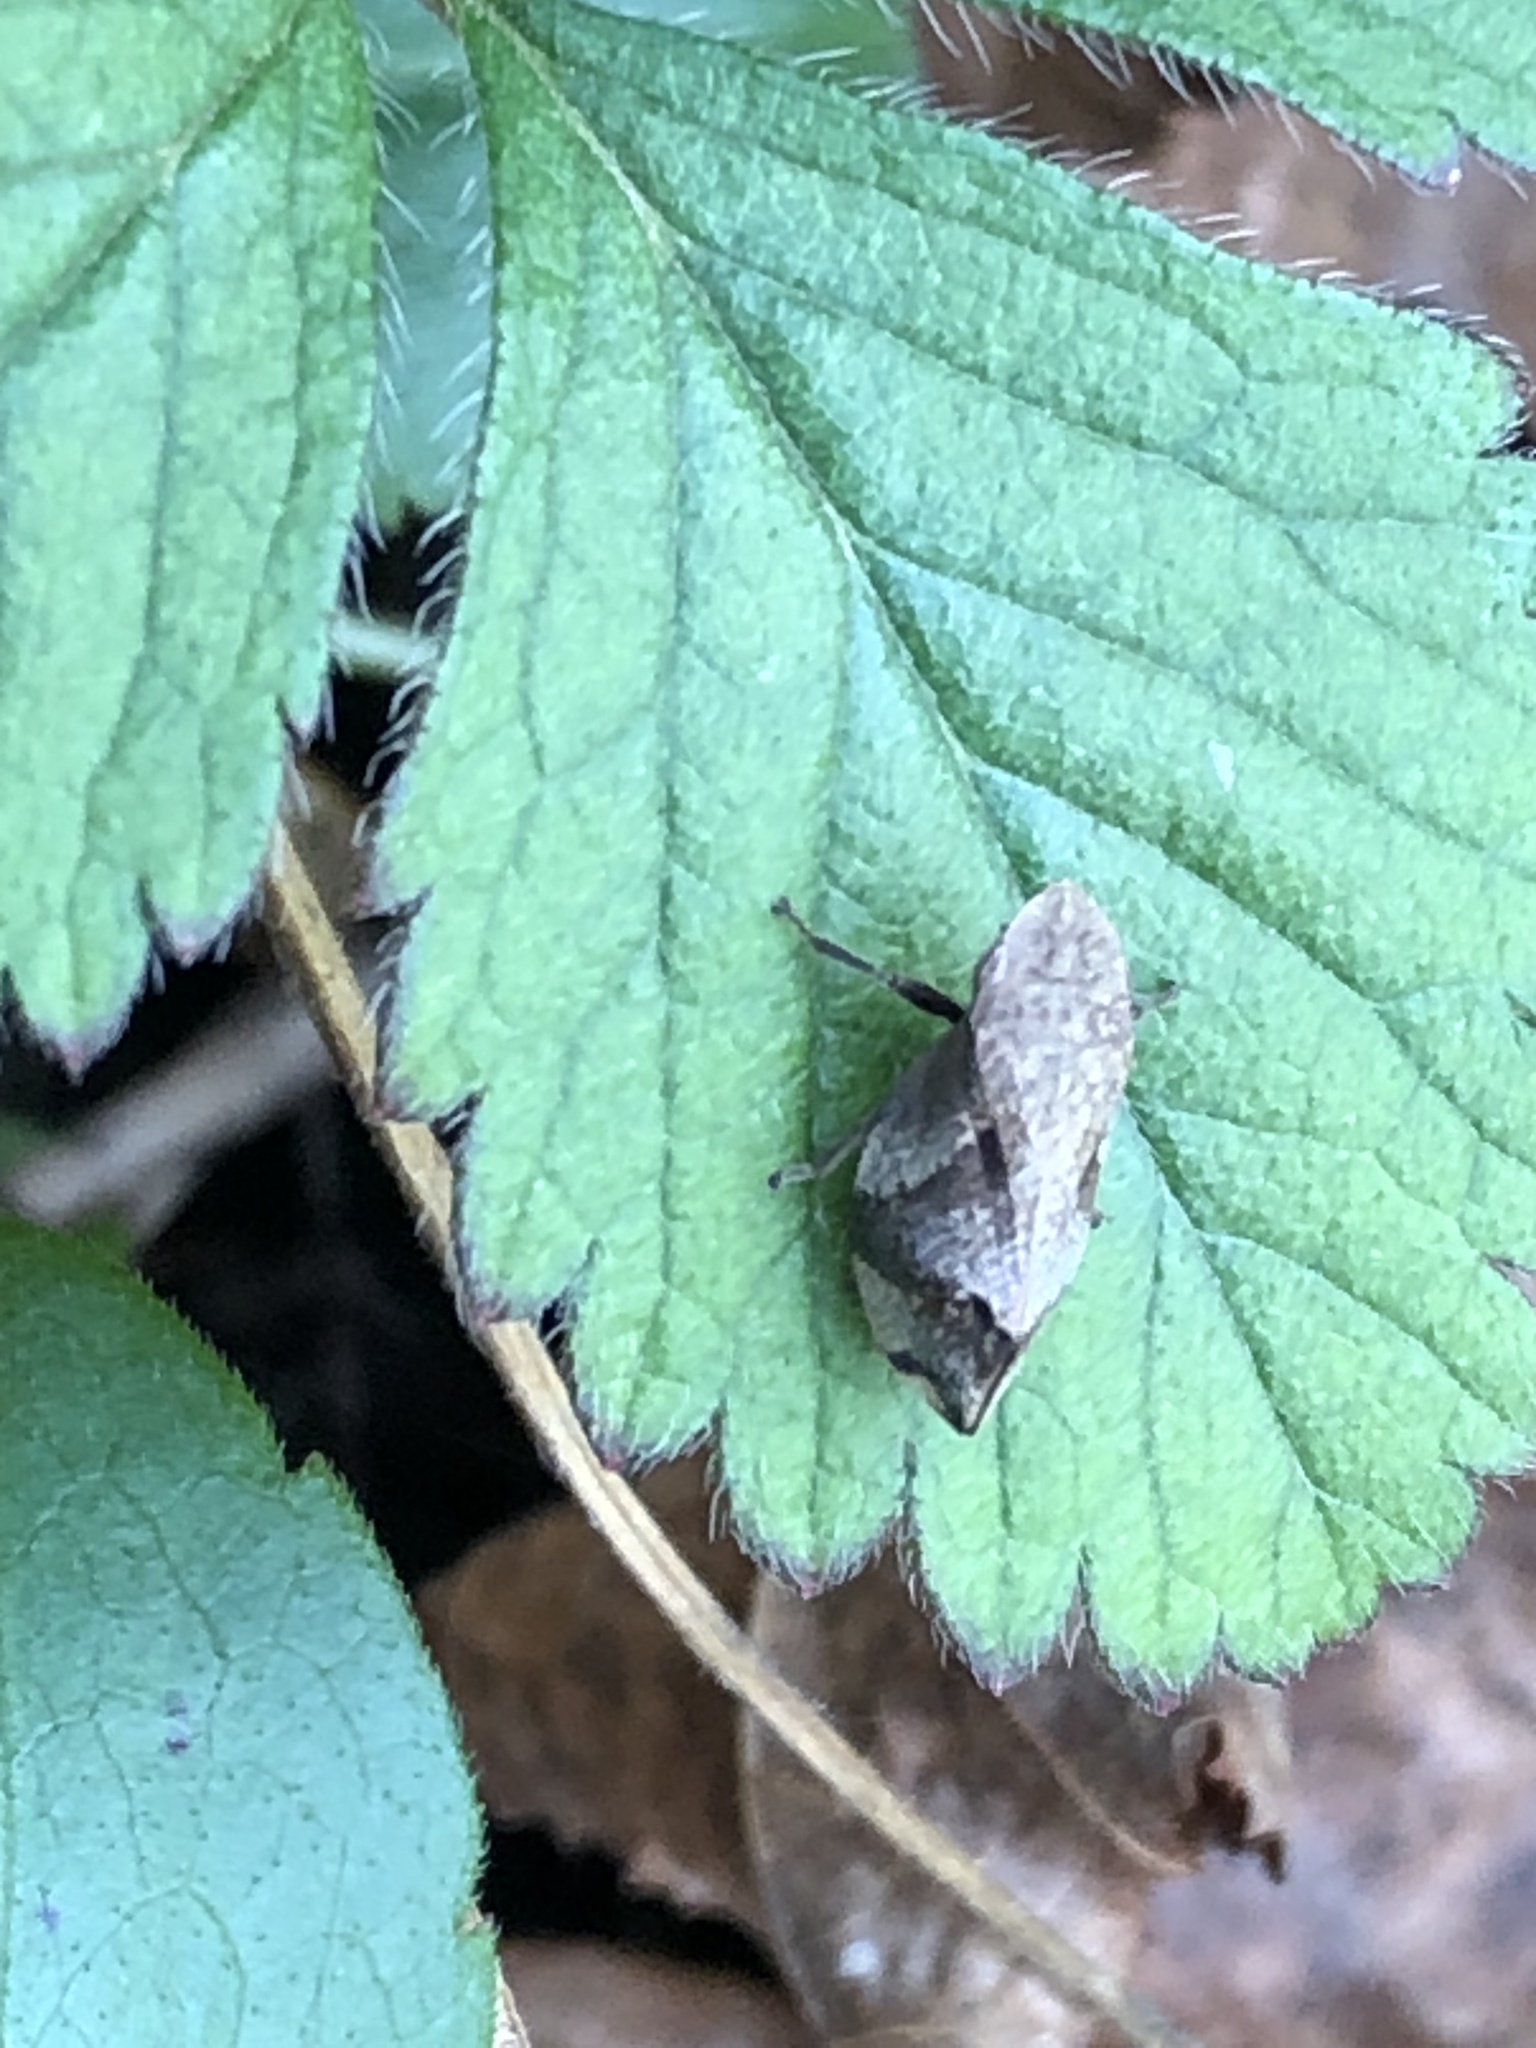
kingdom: Animalia
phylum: Arthropoda
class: Insecta
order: Hemiptera
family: Aphrophoridae
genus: Lepyronia
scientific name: Lepyronia quadrangularis
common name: Diamond-backed spittlebug
